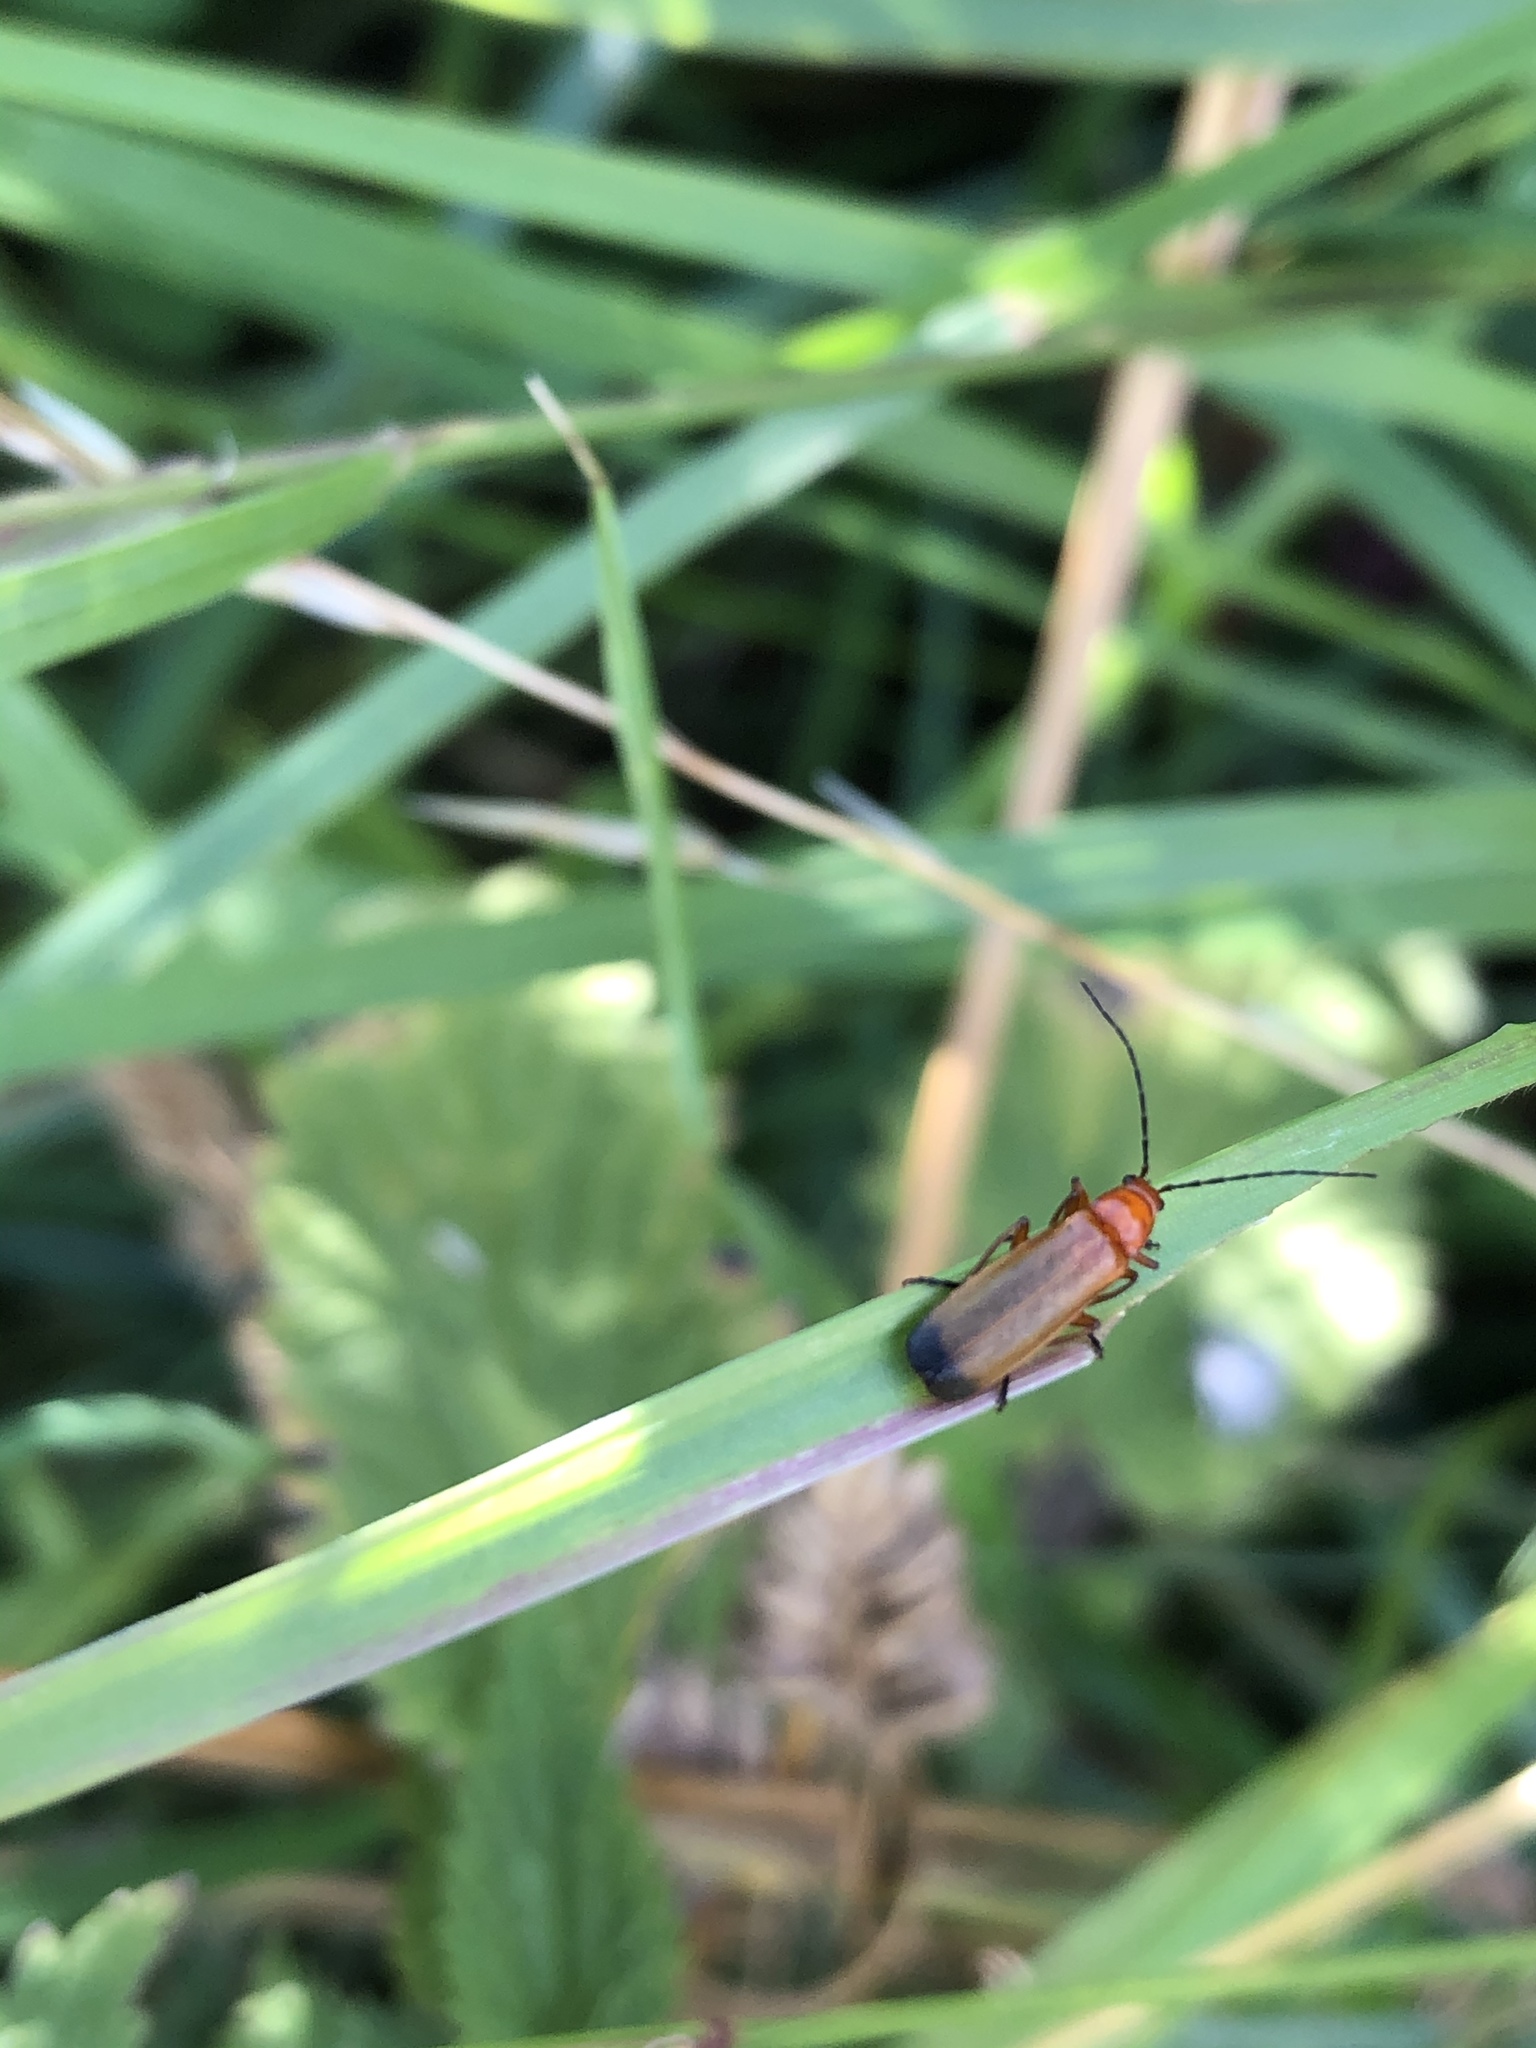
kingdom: Animalia
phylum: Arthropoda
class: Insecta
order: Coleoptera
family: Cantharidae
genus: Rhagonycha
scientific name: Rhagonycha fulva
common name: Common red soldier beetle
